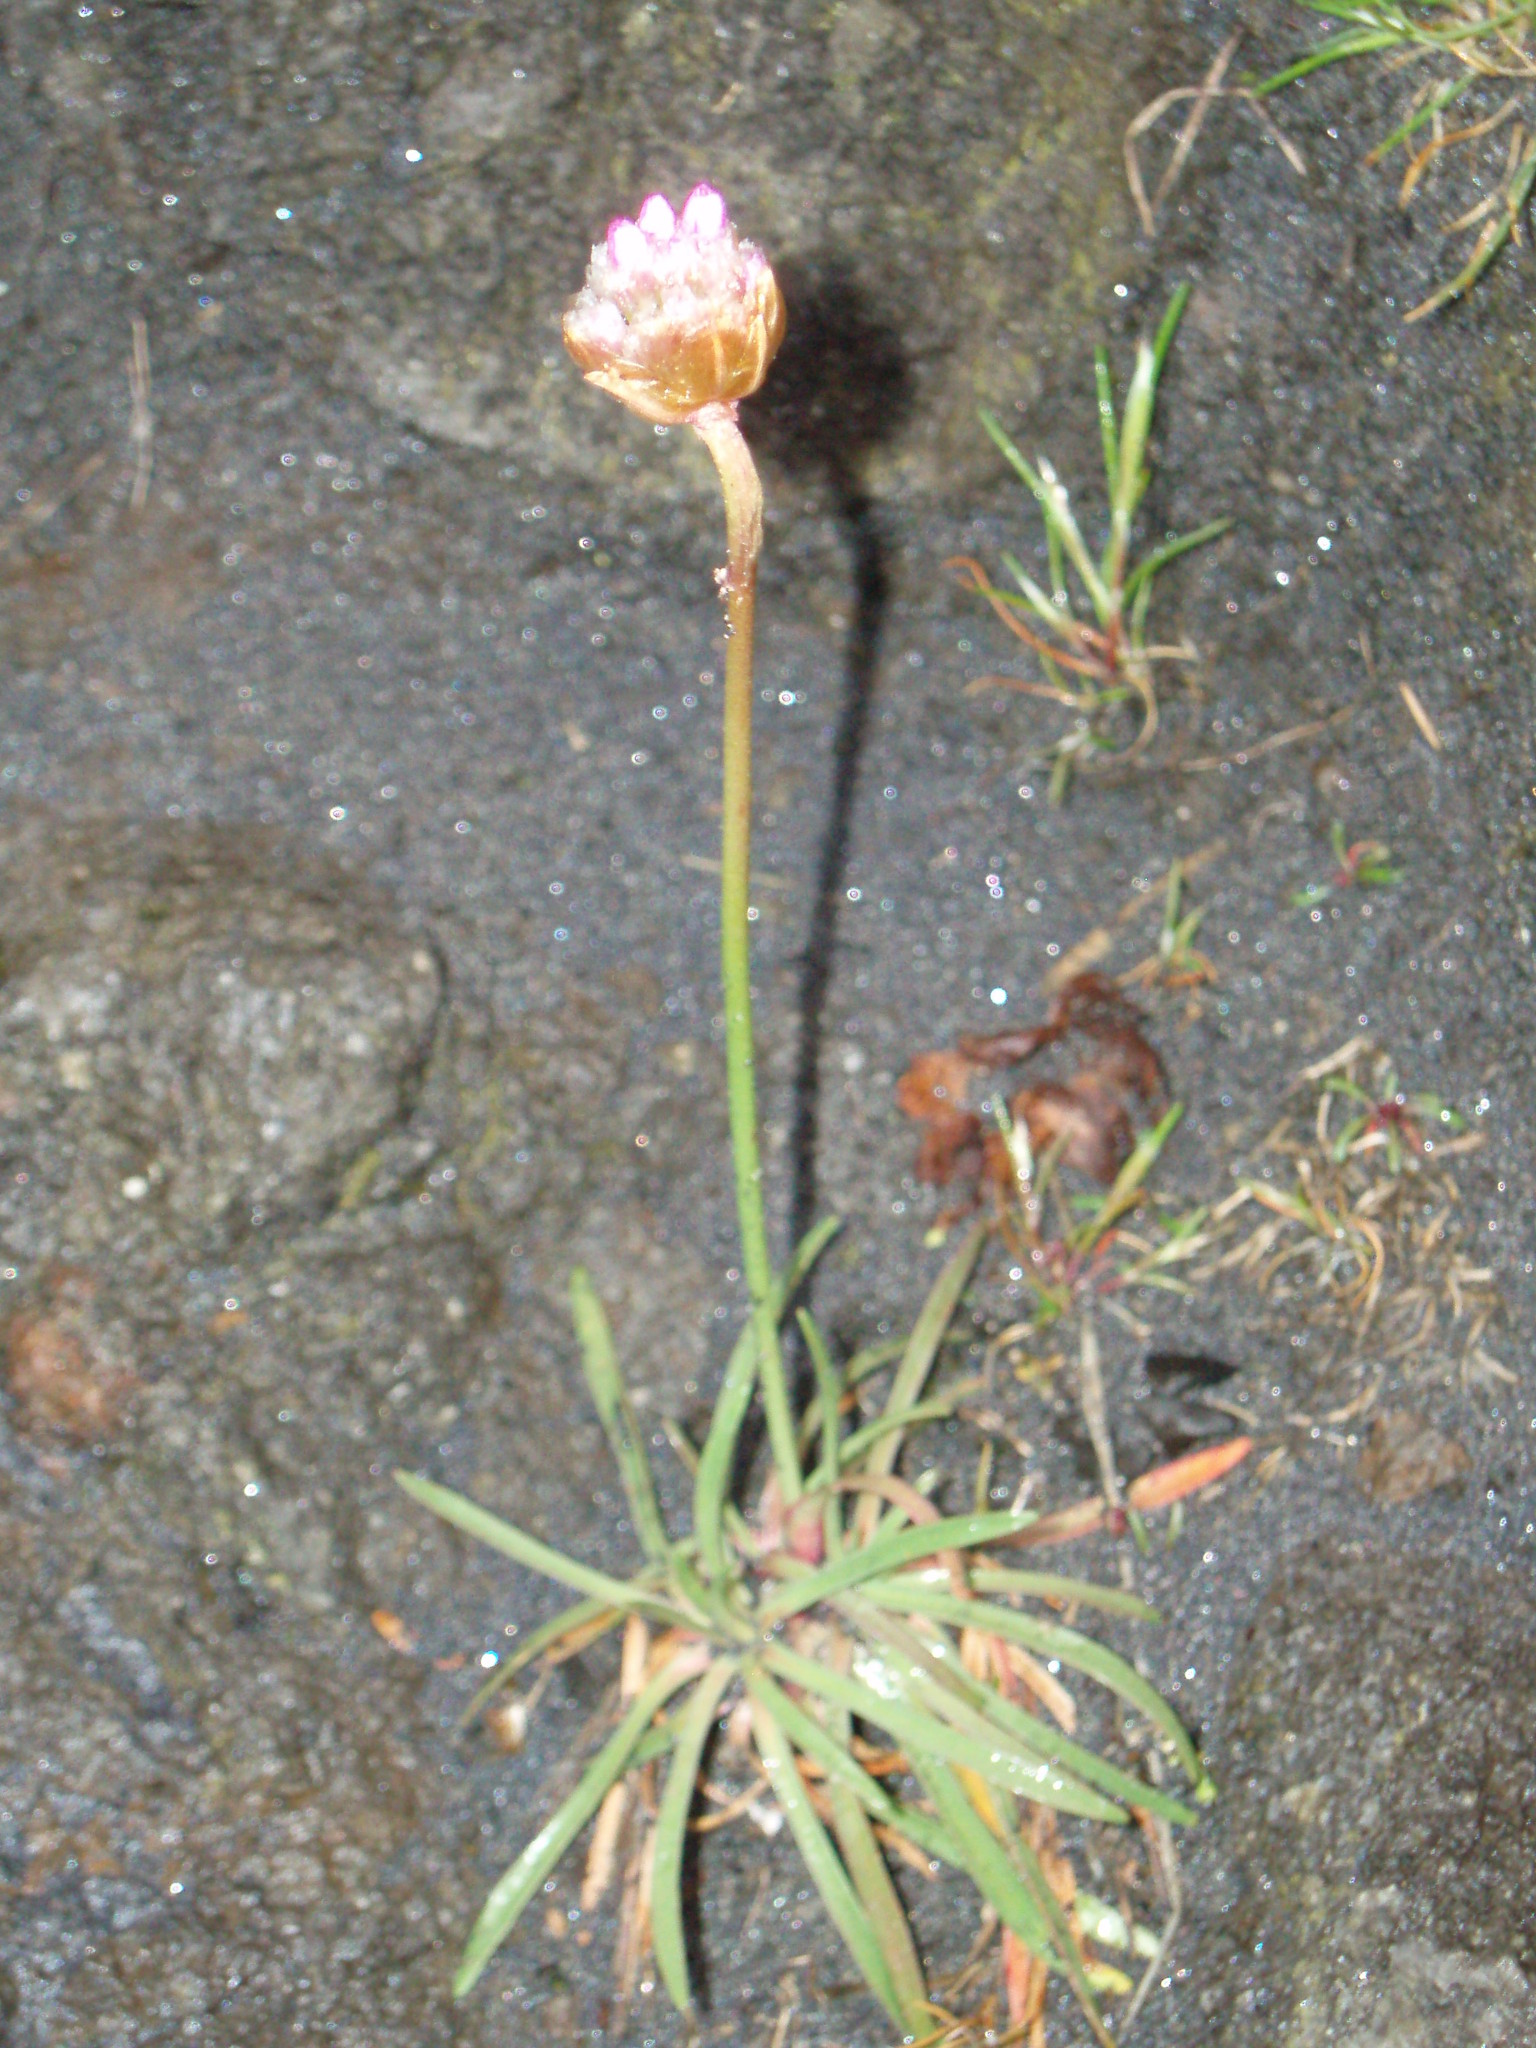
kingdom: Plantae
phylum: Tracheophyta
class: Magnoliopsida
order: Caryophyllales
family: Plumbaginaceae
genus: Armeria
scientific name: Armeria maritima
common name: Thrift
